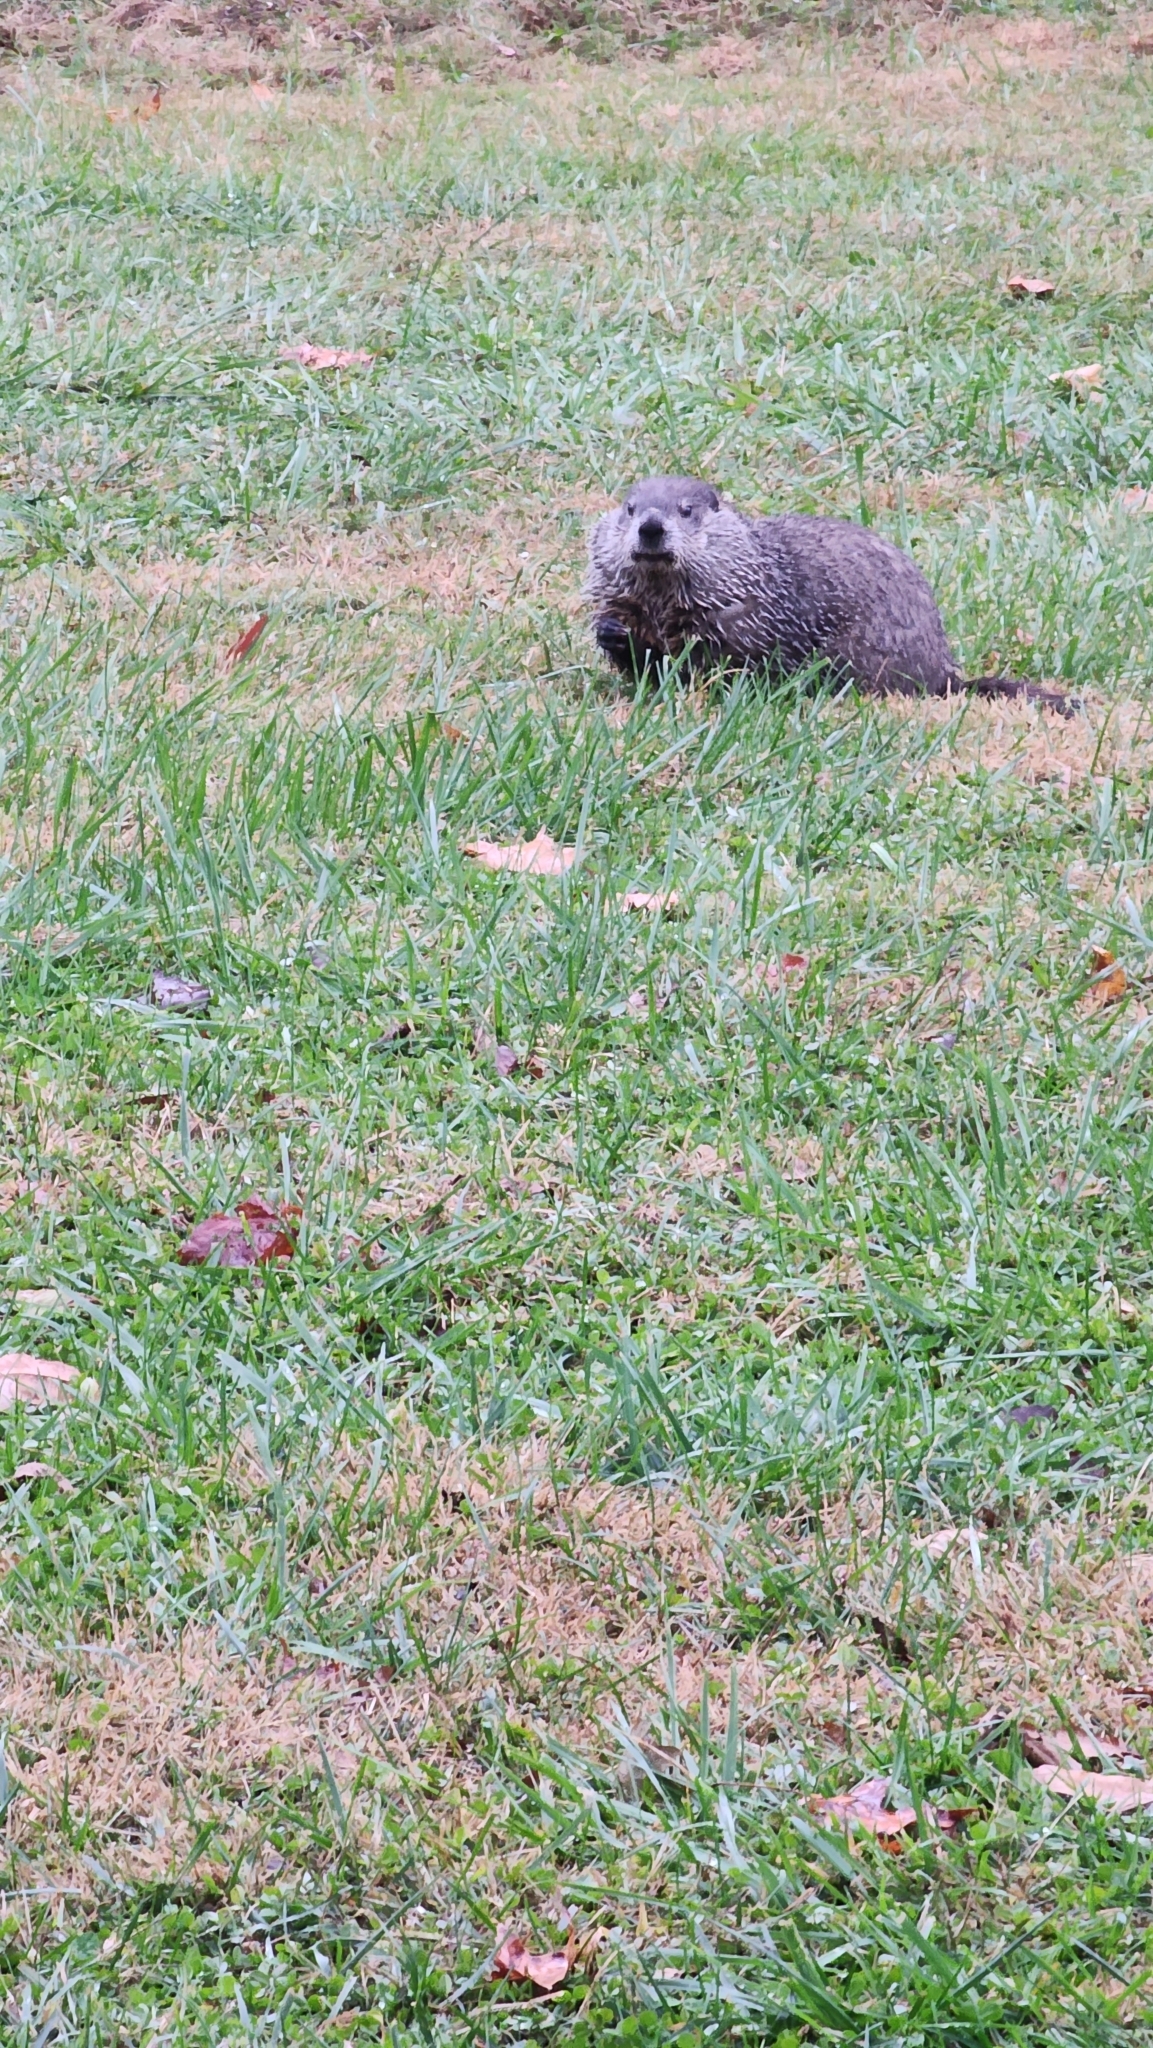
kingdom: Animalia
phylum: Chordata
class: Mammalia
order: Rodentia
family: Sciuridae
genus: Marmota
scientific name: Marmota monax
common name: Groundhog
